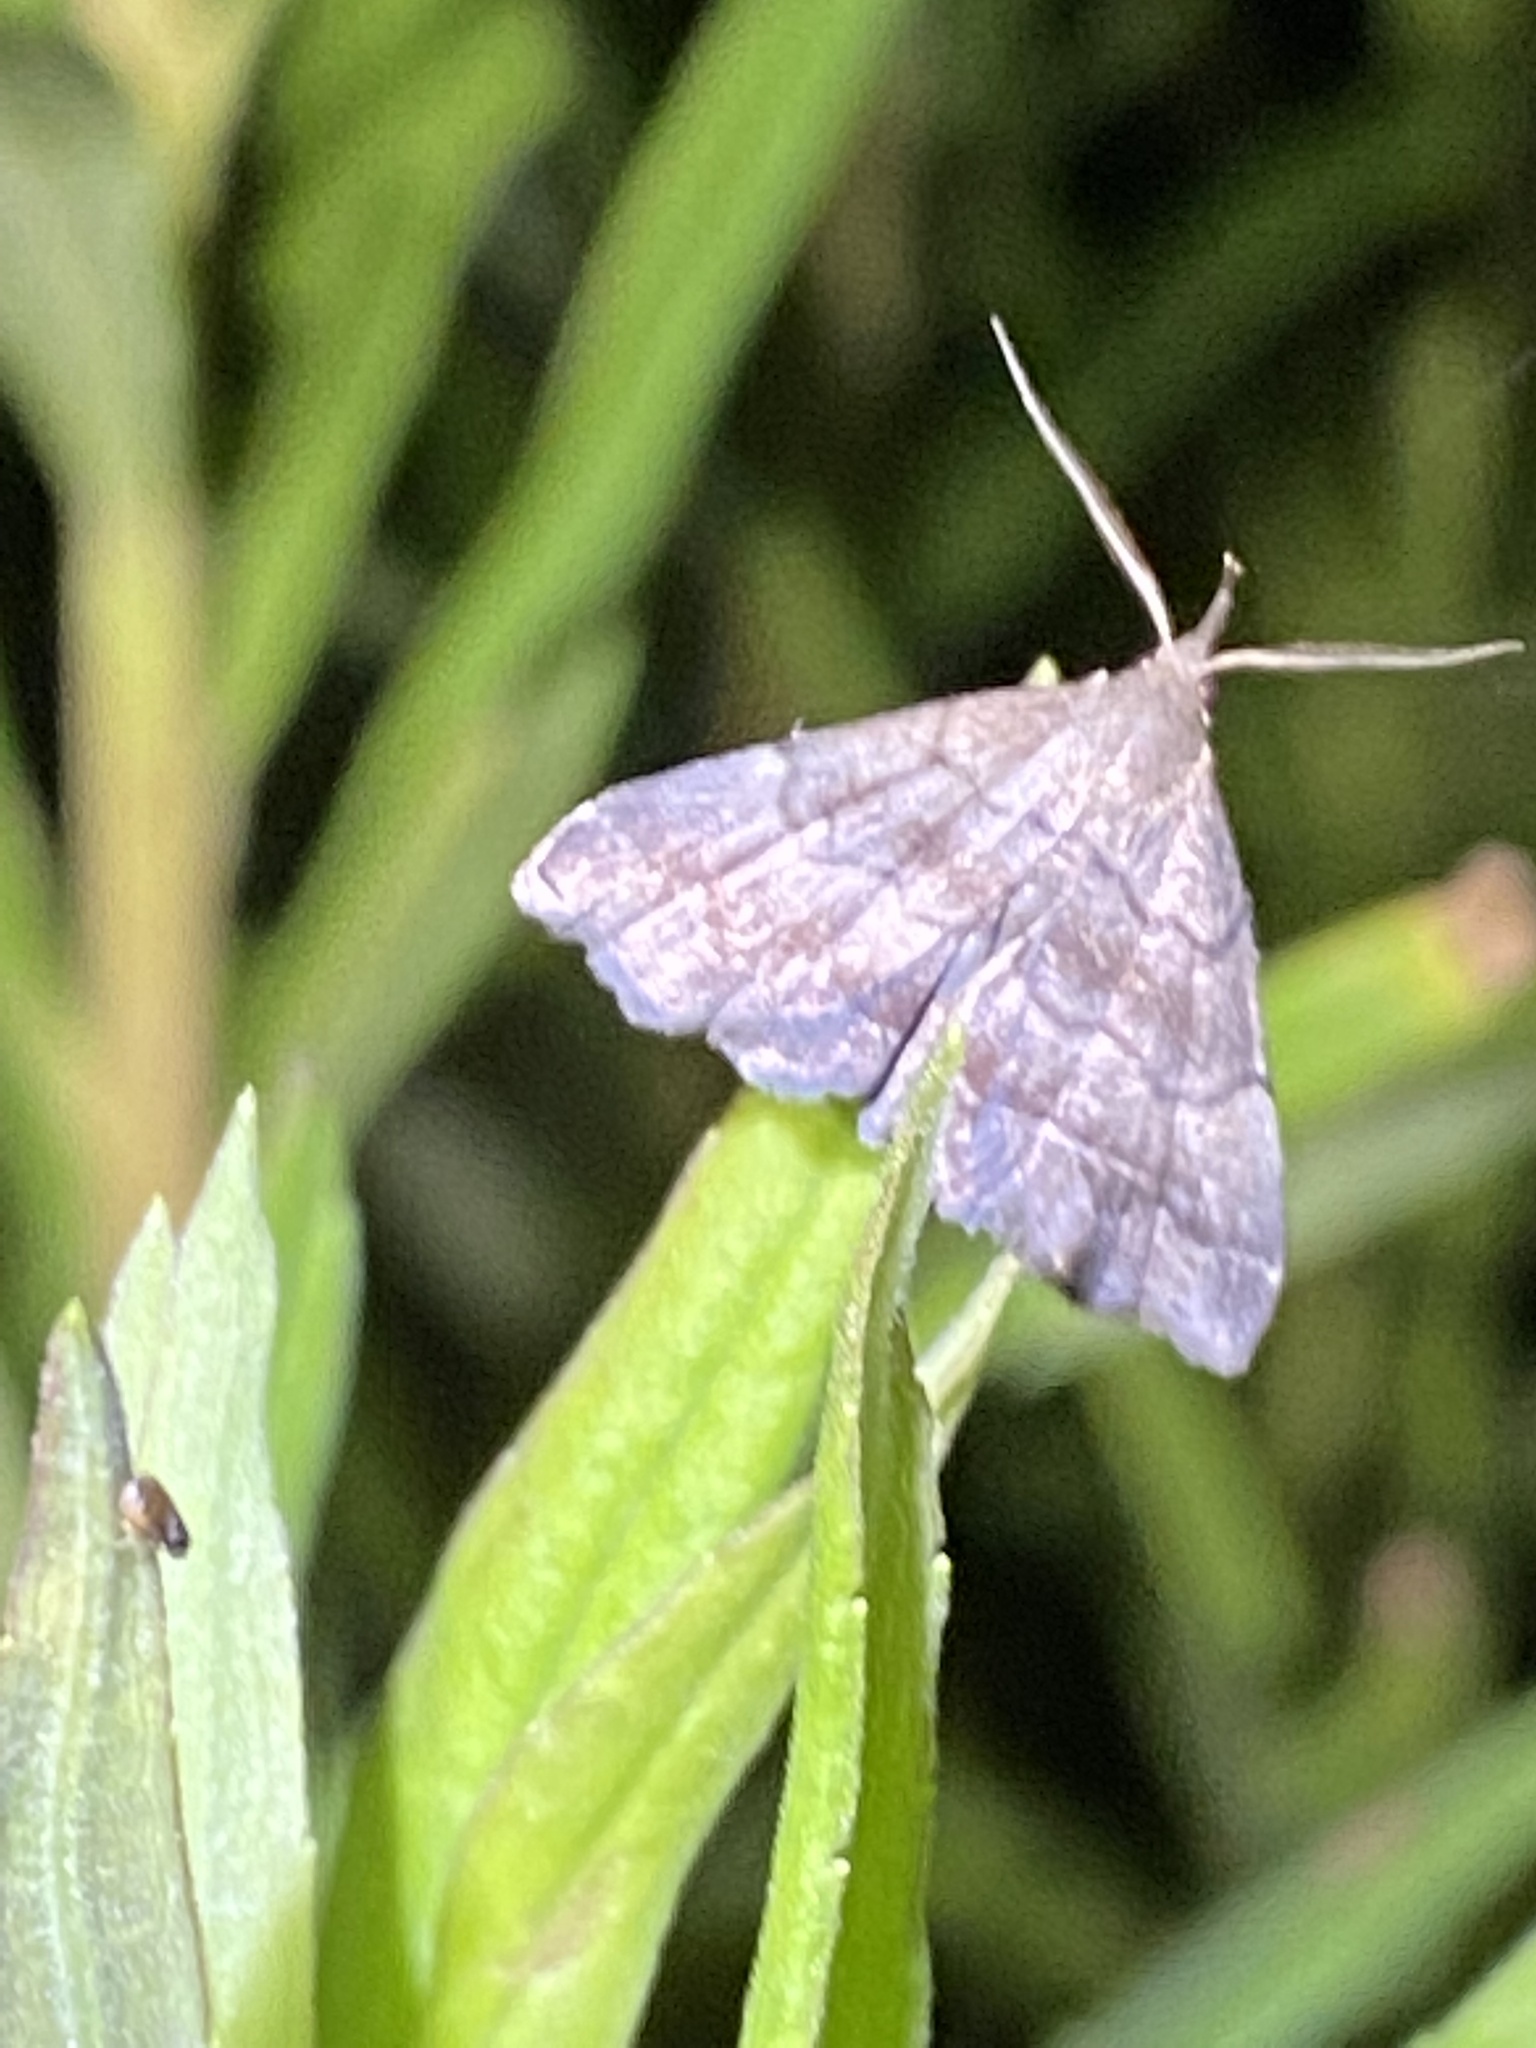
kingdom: Animalia
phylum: Arthropoda
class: Insecta
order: Lepidoptera
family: Erebidae
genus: Phalaenostola
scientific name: Phalaenostola larentioides
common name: Black-banded owlet
